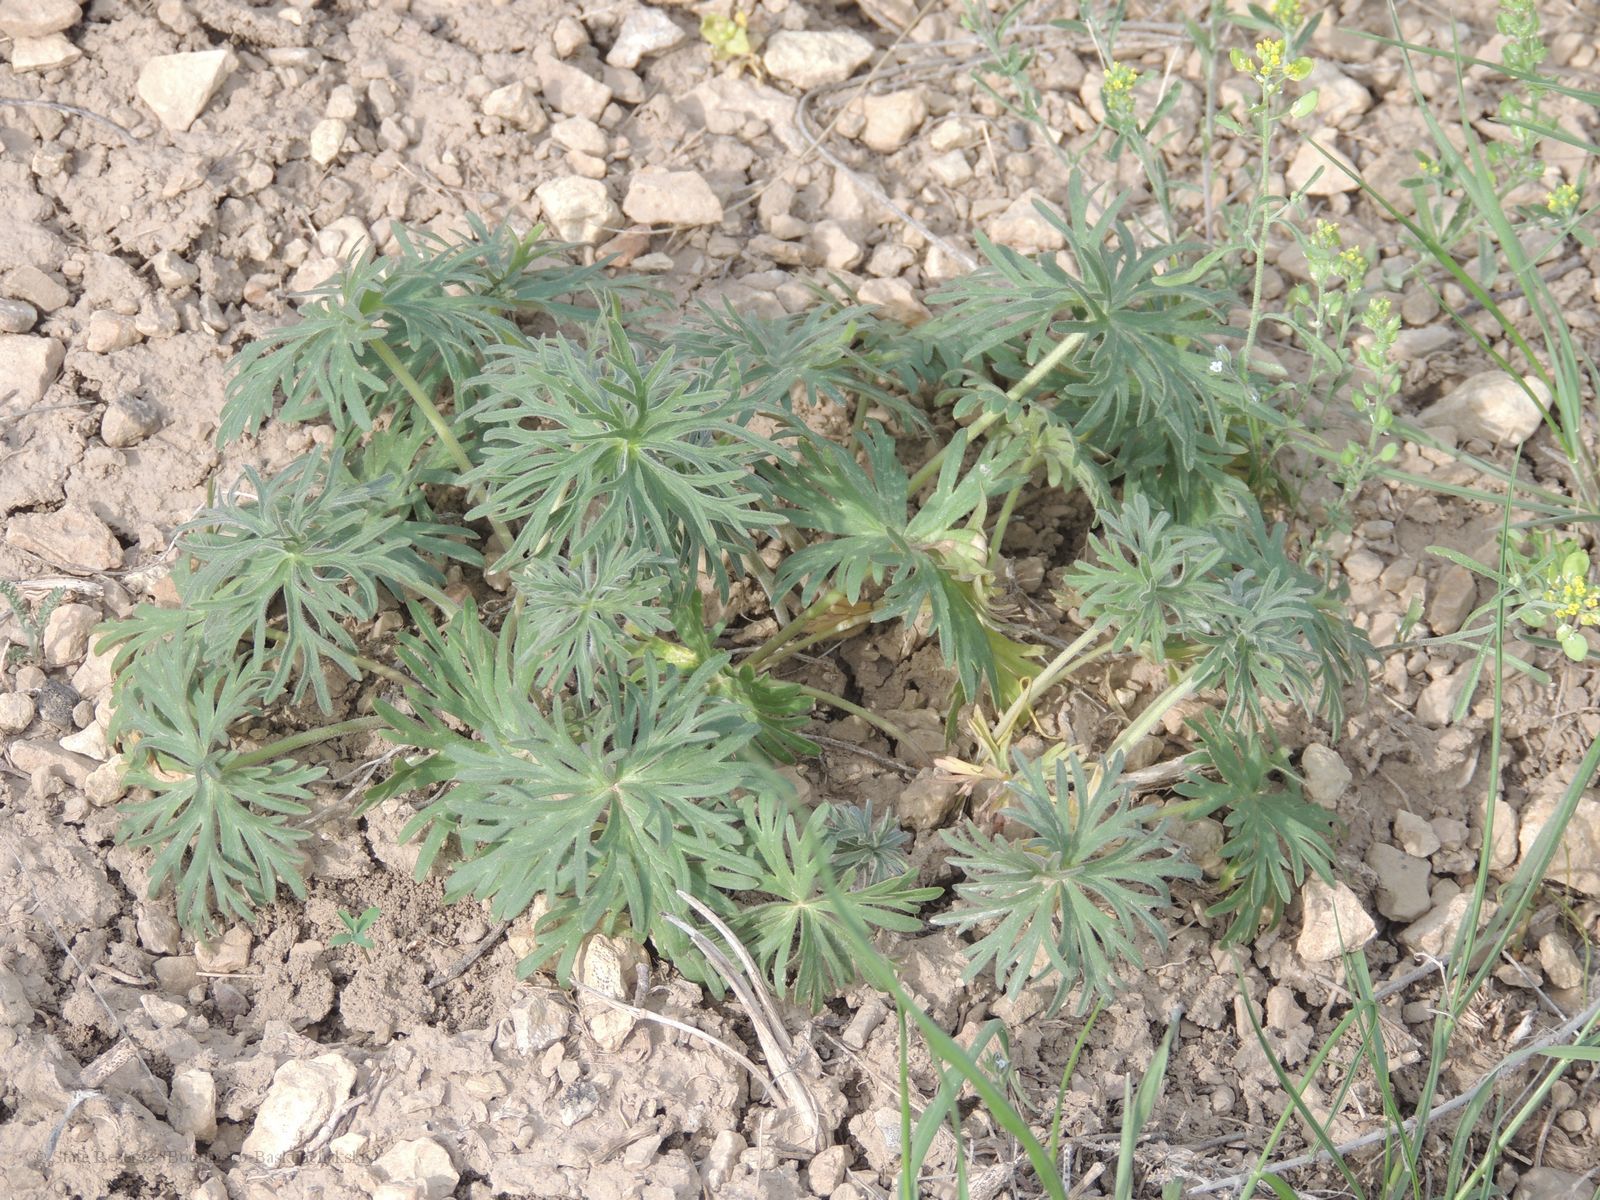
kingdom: Plantae
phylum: Tracheophyta
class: Magnoliopsida
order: Brassicales
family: Brassicaceae
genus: Alyssum
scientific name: Alyssum turkestanicum
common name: Desert alyssum
